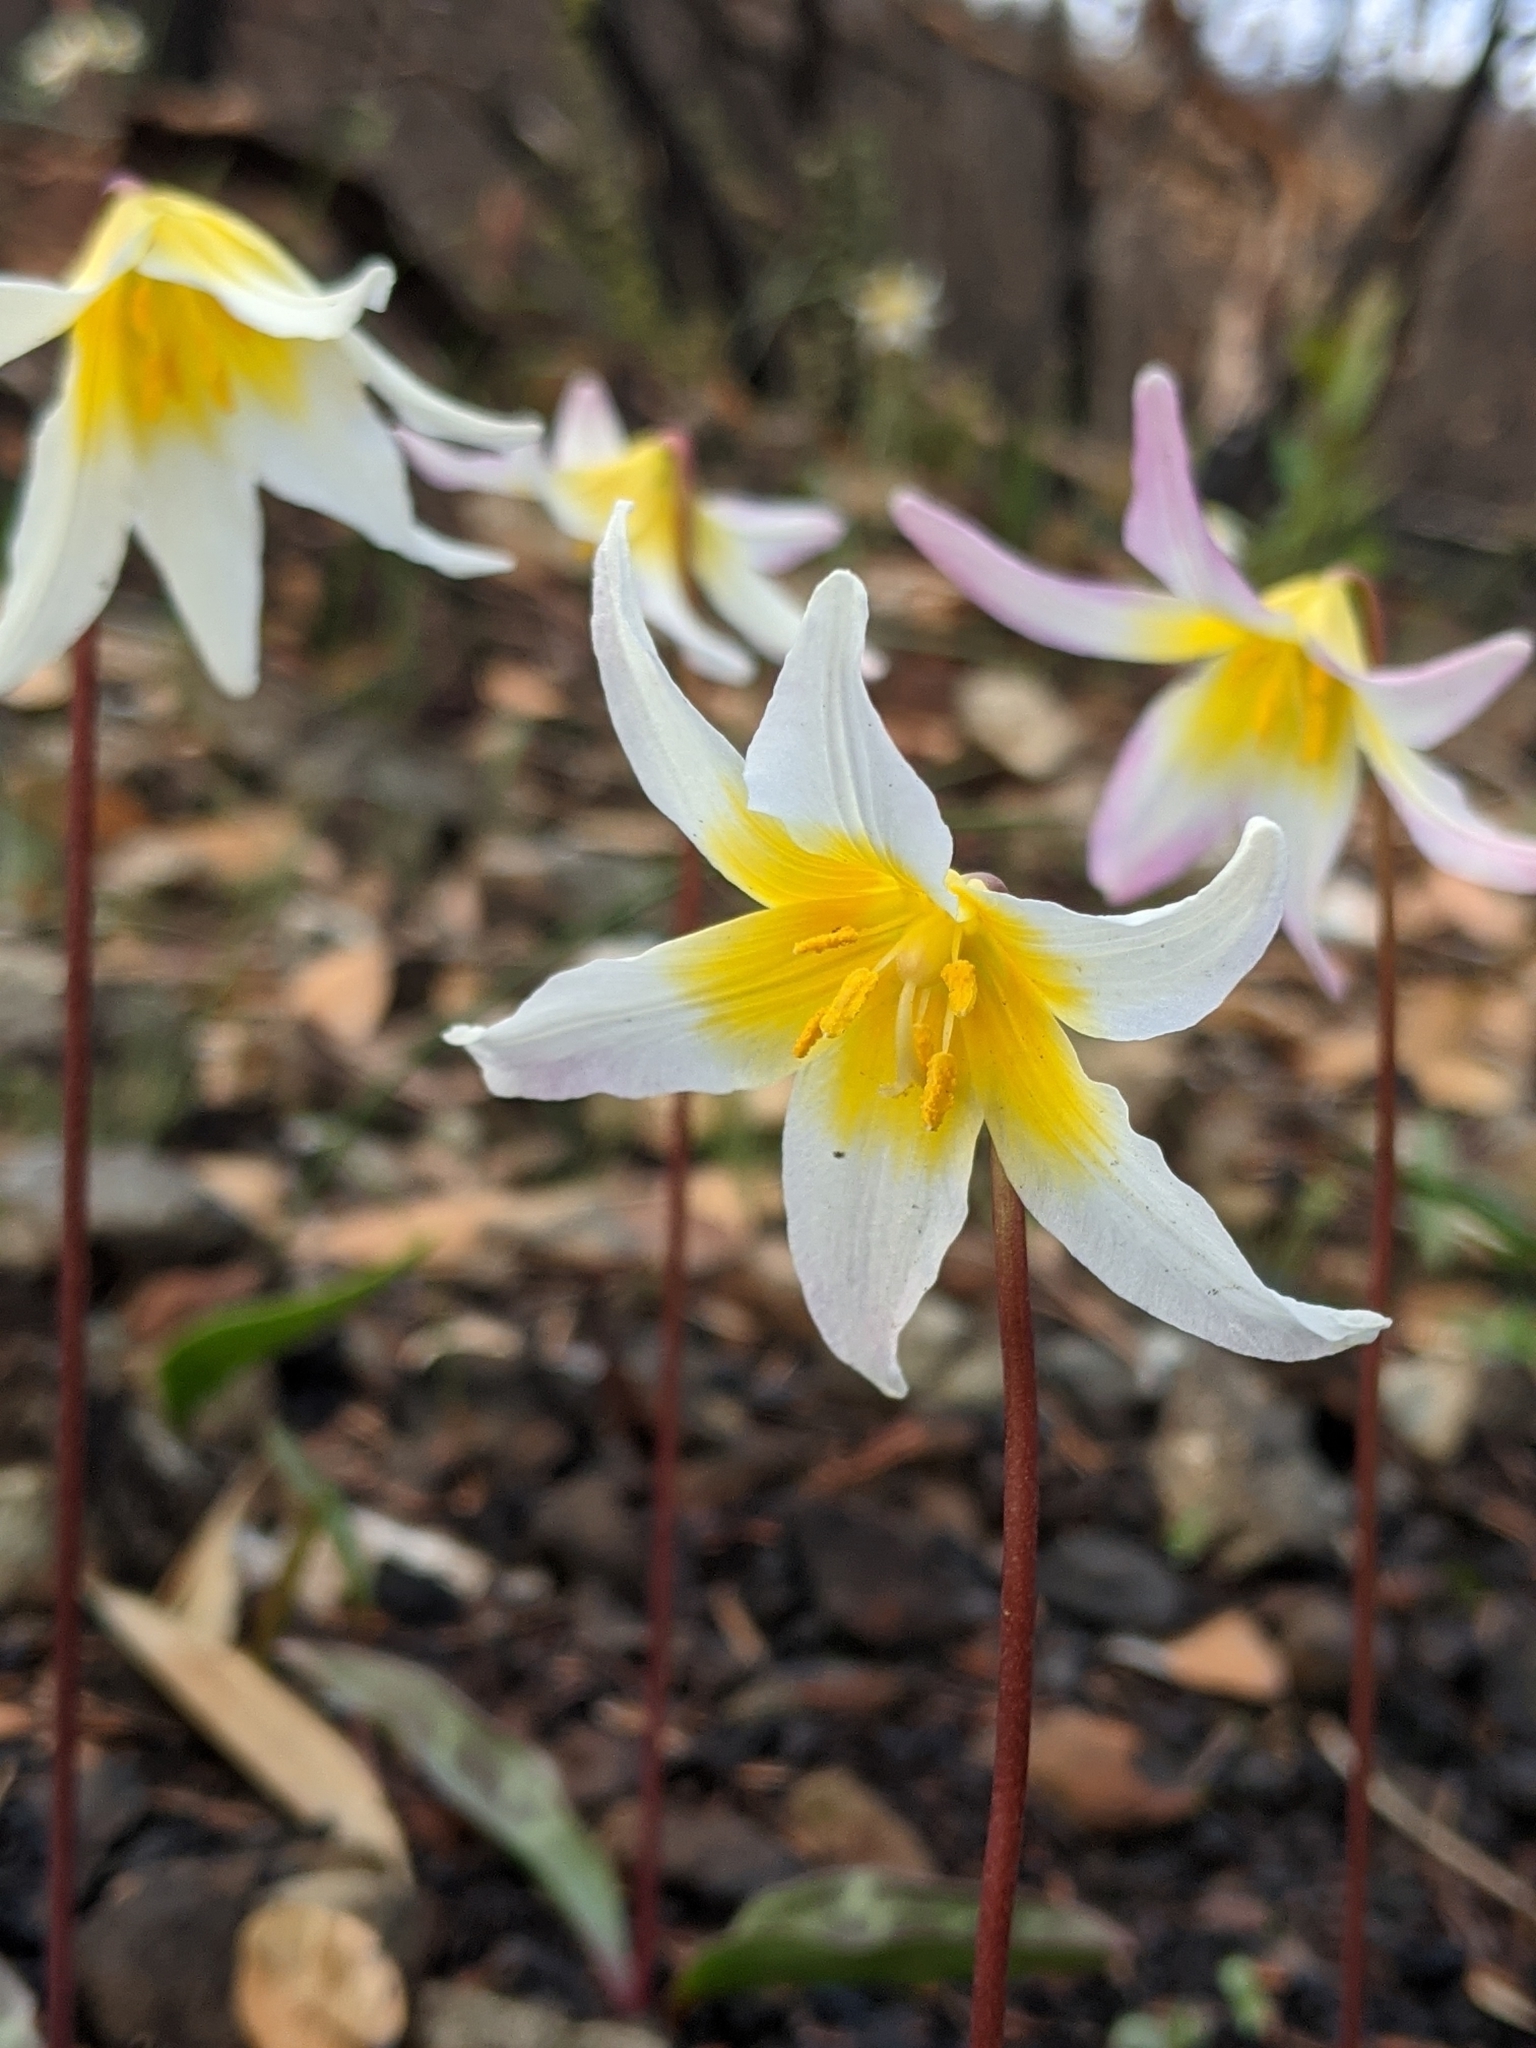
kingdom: Plantae
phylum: Tracheophyta
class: Liliopsida
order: Liliales
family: Liliaceae
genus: Erythronium
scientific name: Erythronium helenae
